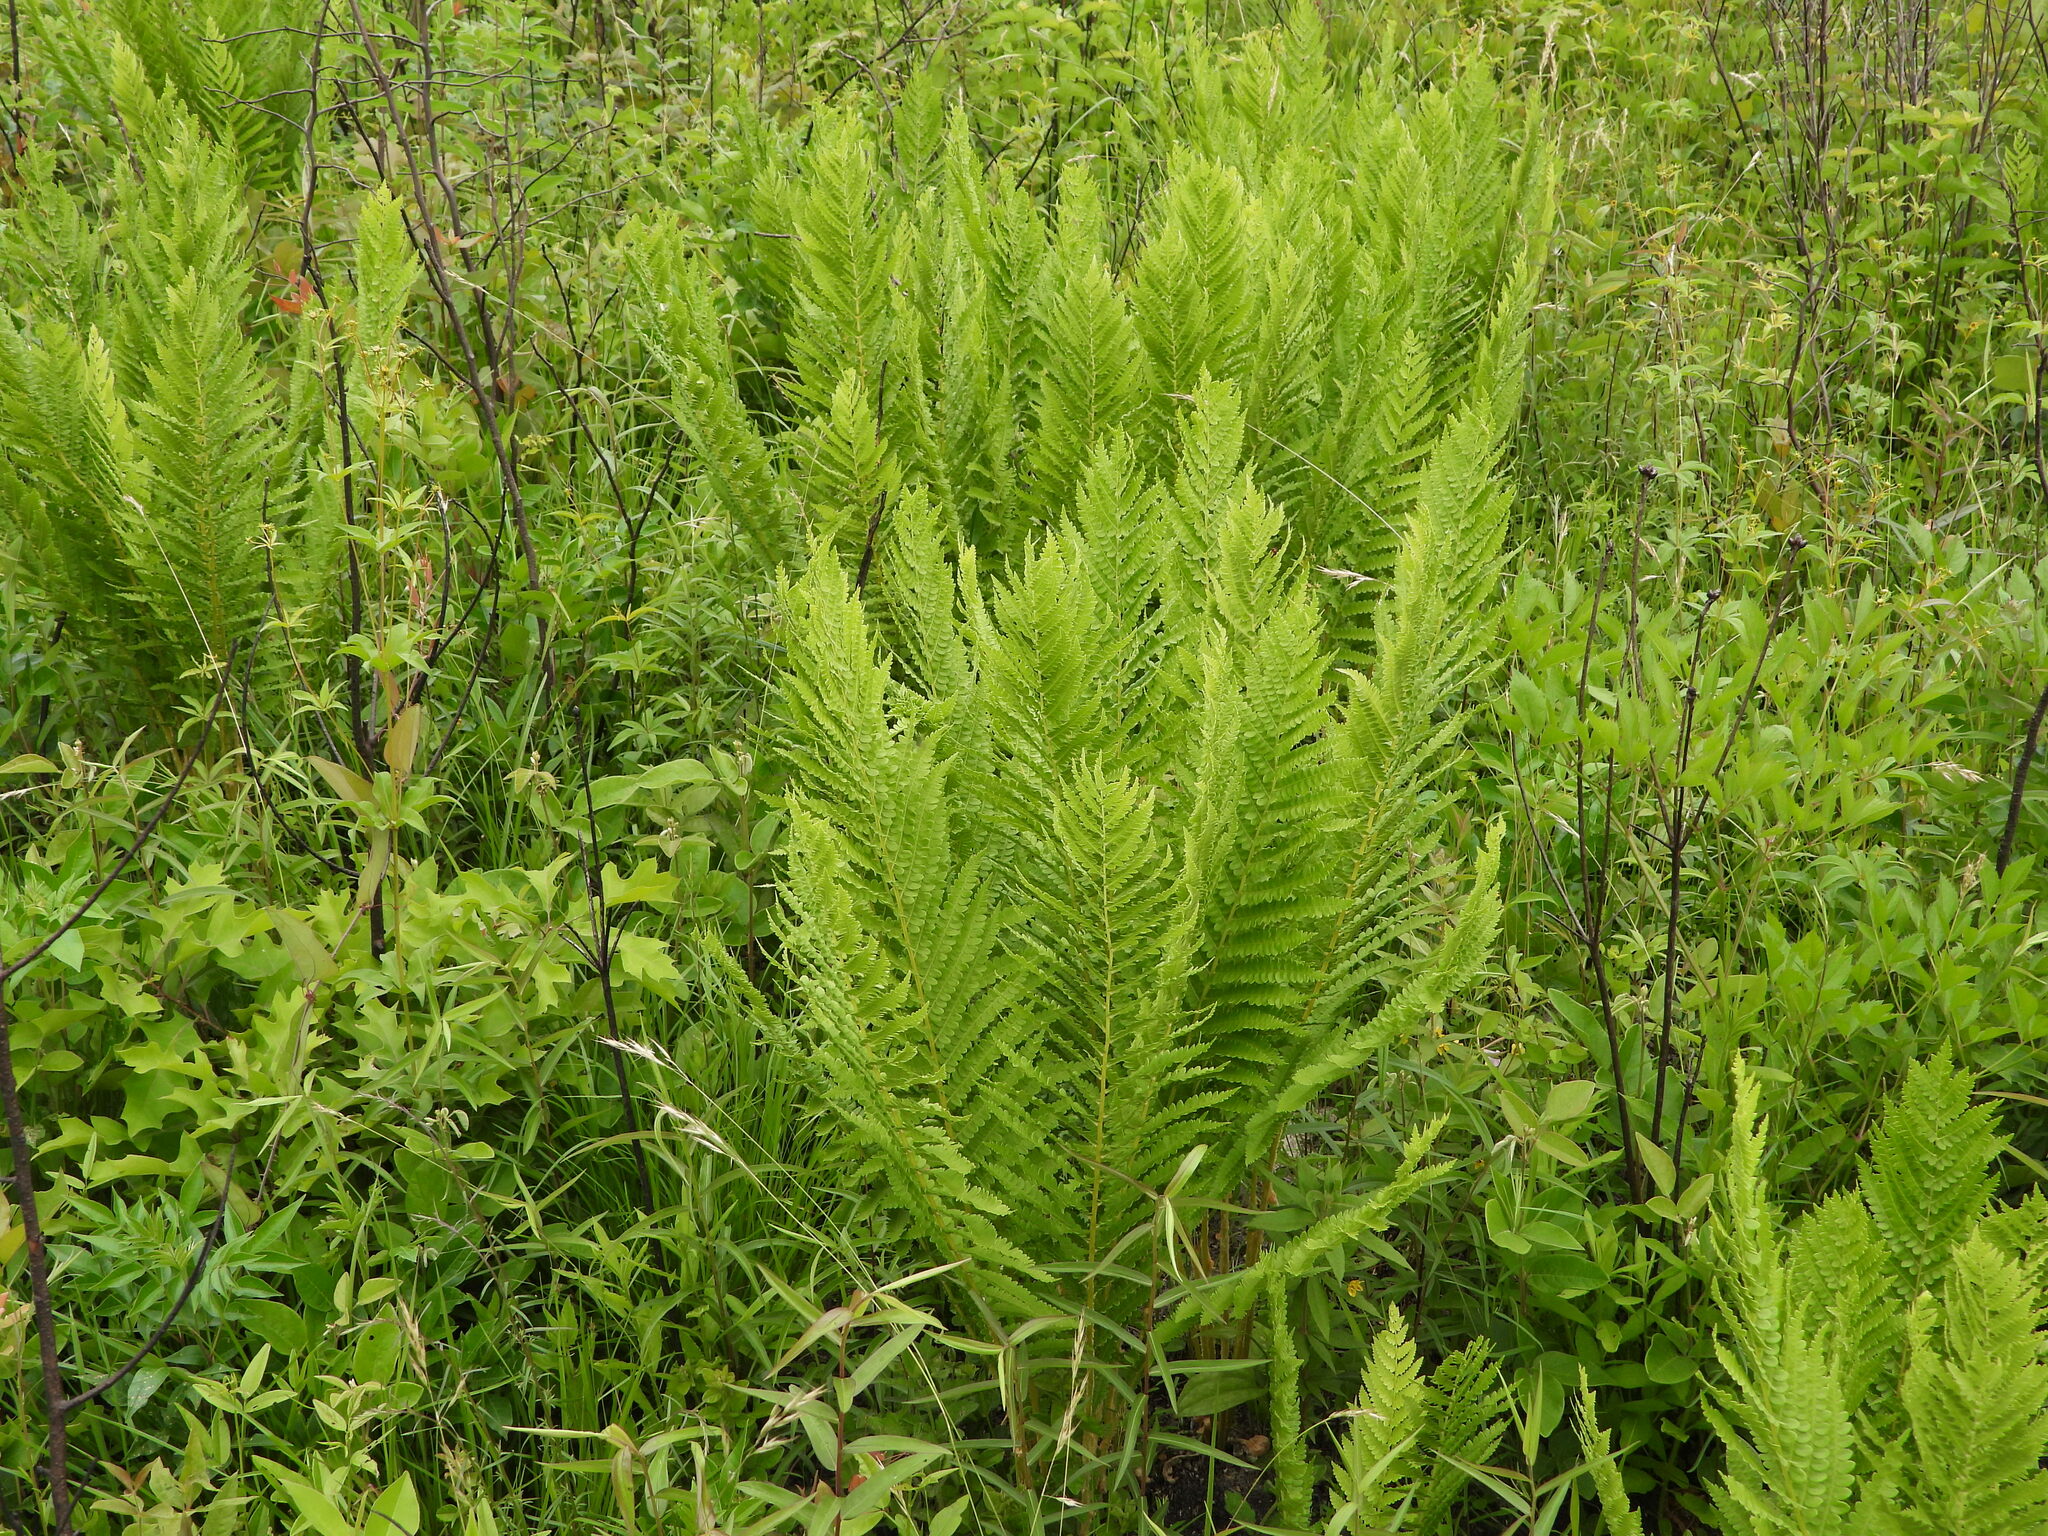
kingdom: Plantae
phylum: Tracheophyta
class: Polypodiopsida
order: Osmundales
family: Osmundaceae
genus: Osmundastrum
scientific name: Osmundastrum cinnamomeum
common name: Cinnamon fern
